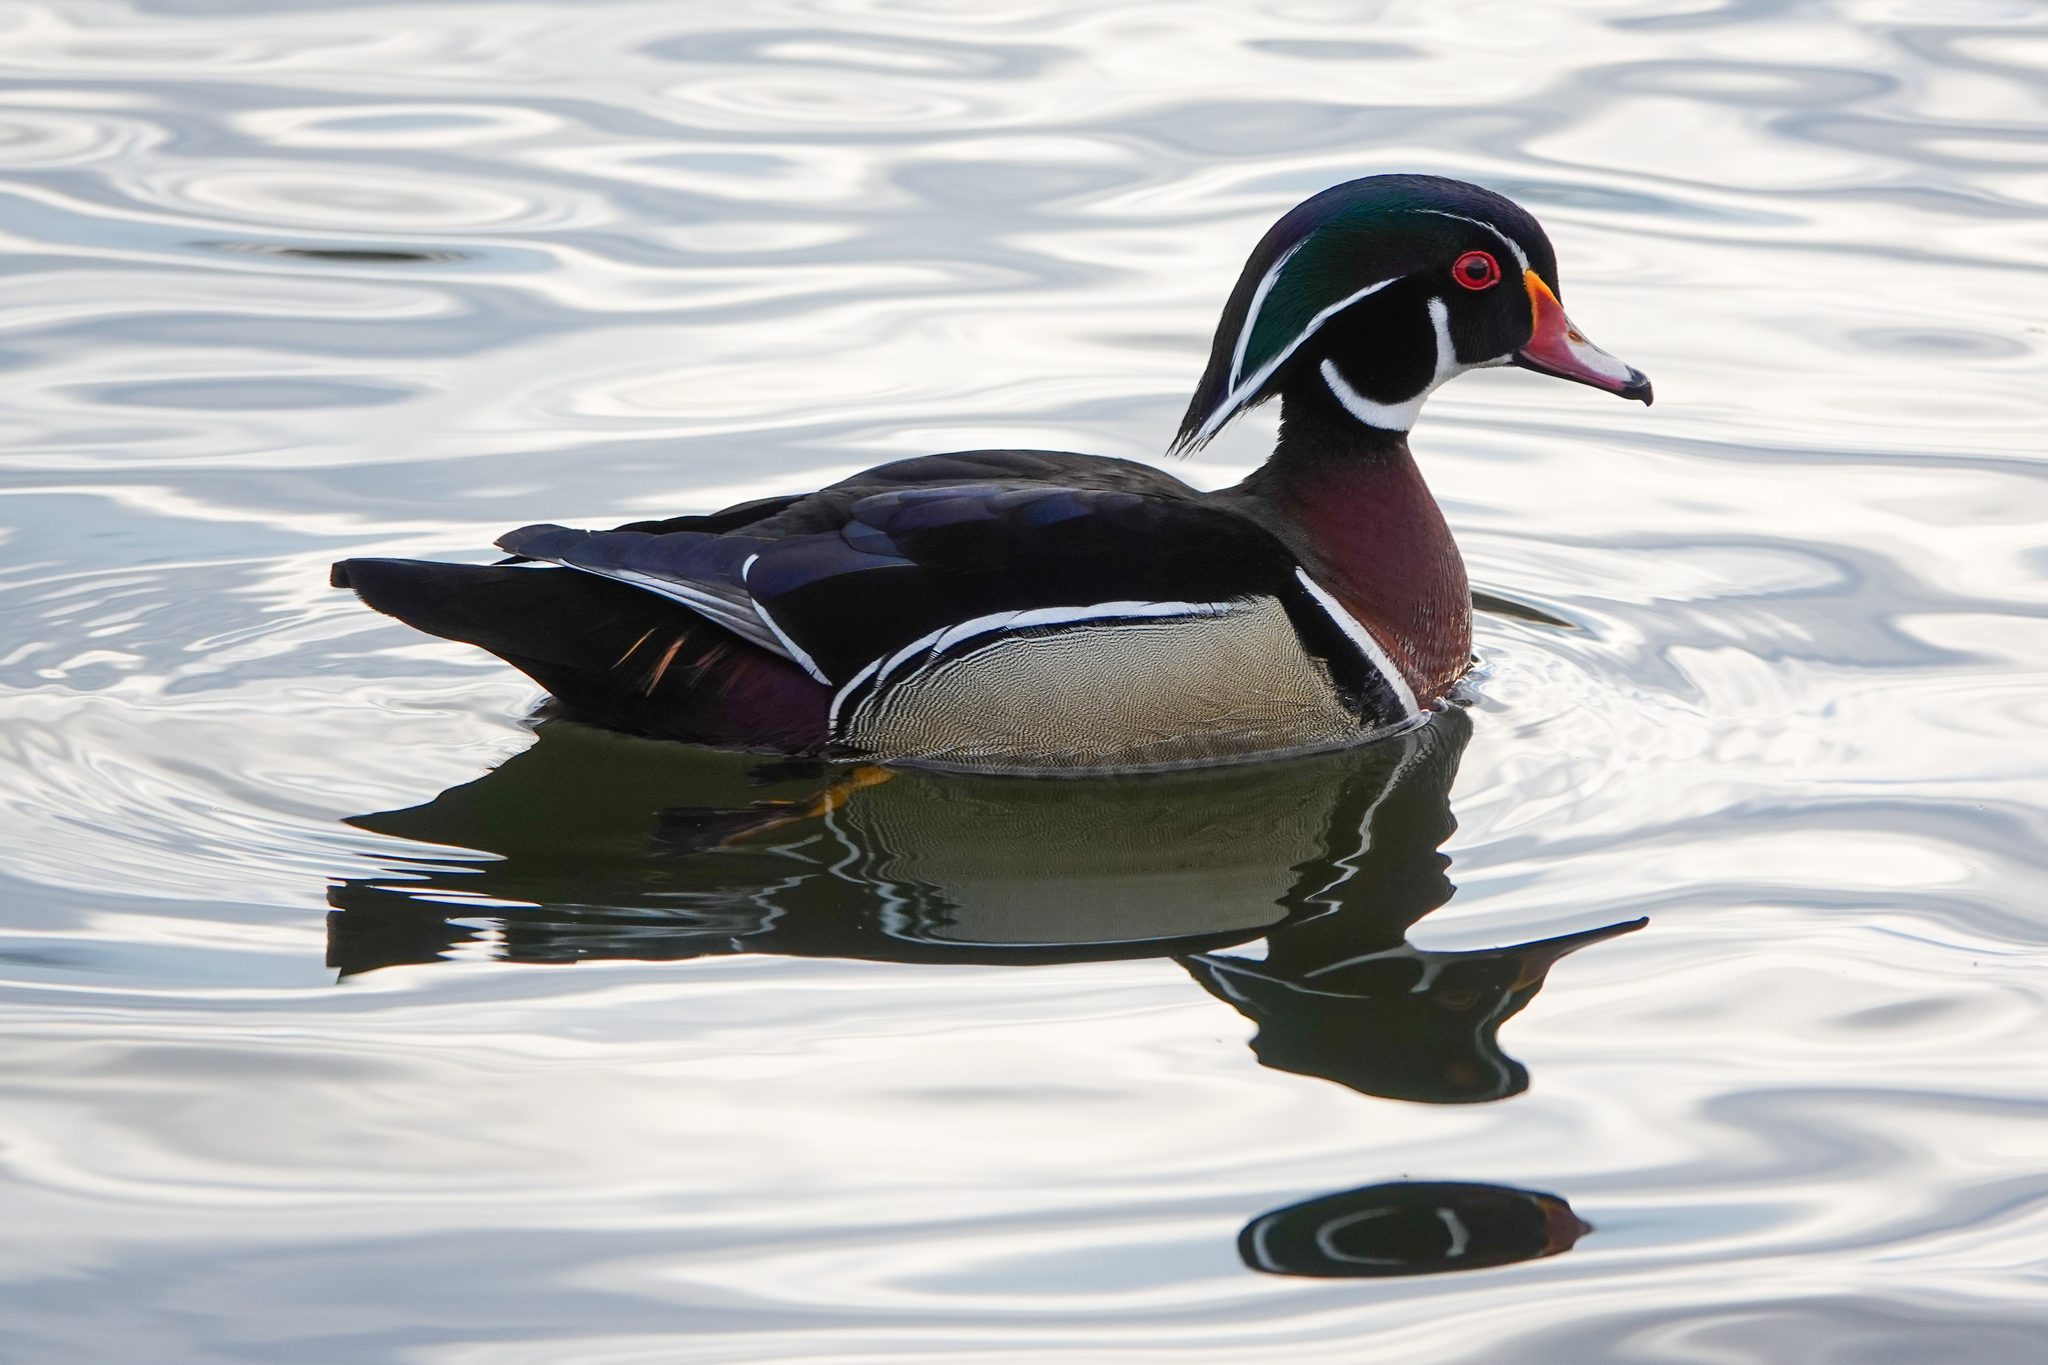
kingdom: Animalia
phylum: Chordata
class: Aves
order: Anseriformes
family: Anatidae
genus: Aix
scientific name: Aix sponsa
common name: Wood duck
